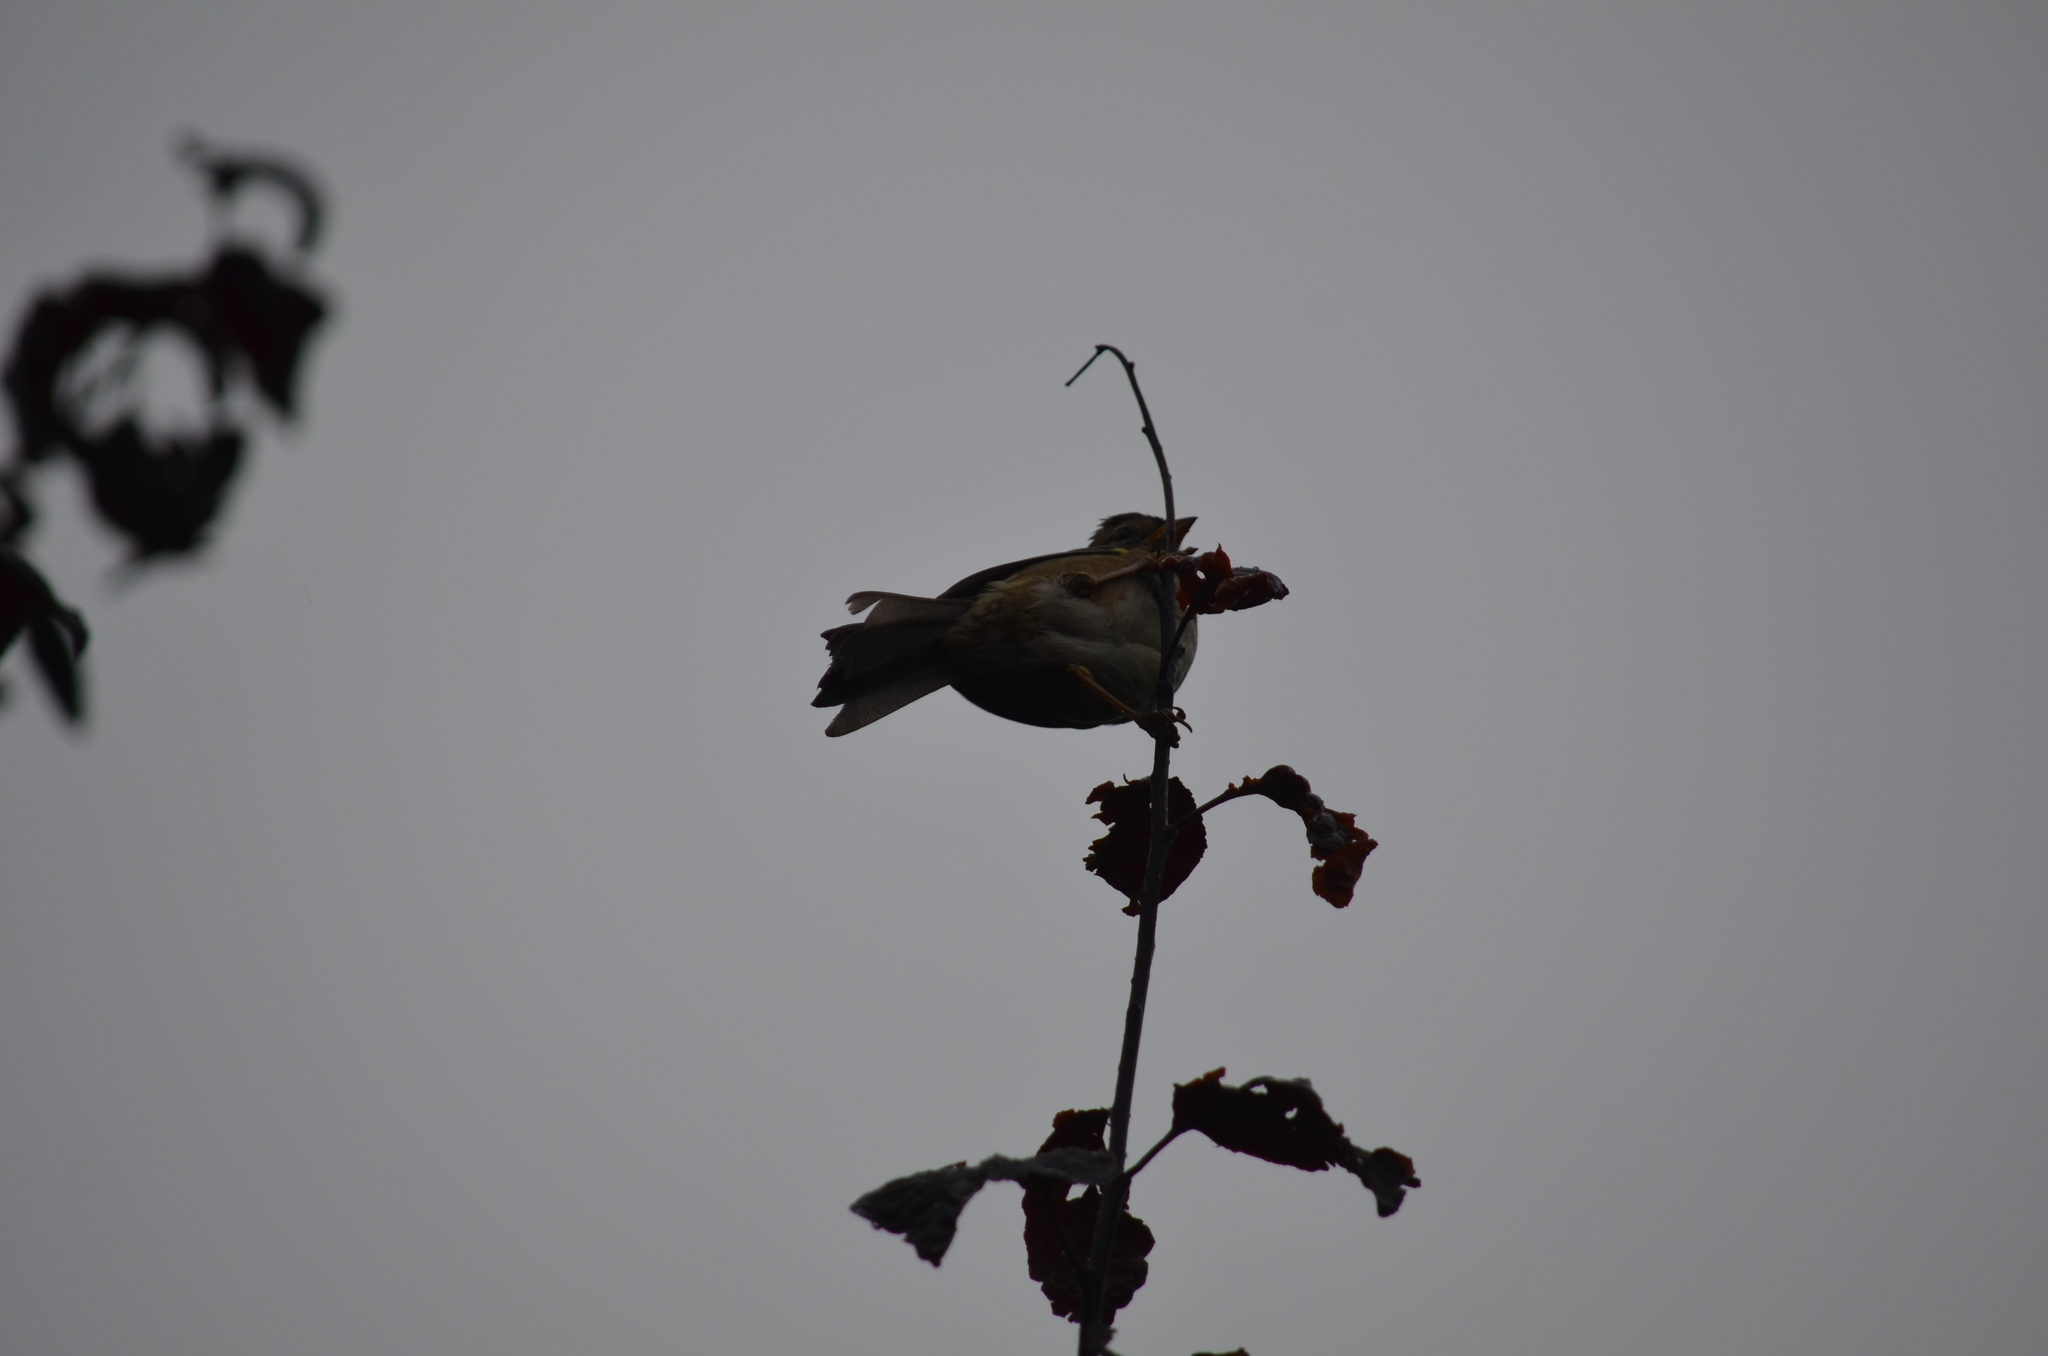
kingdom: Animalia
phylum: Chordata
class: Aves
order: Passeriformes
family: Passerellidae
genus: Zonotrichia
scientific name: Zonotrichia leucophrys
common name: White-crowned sparrow
